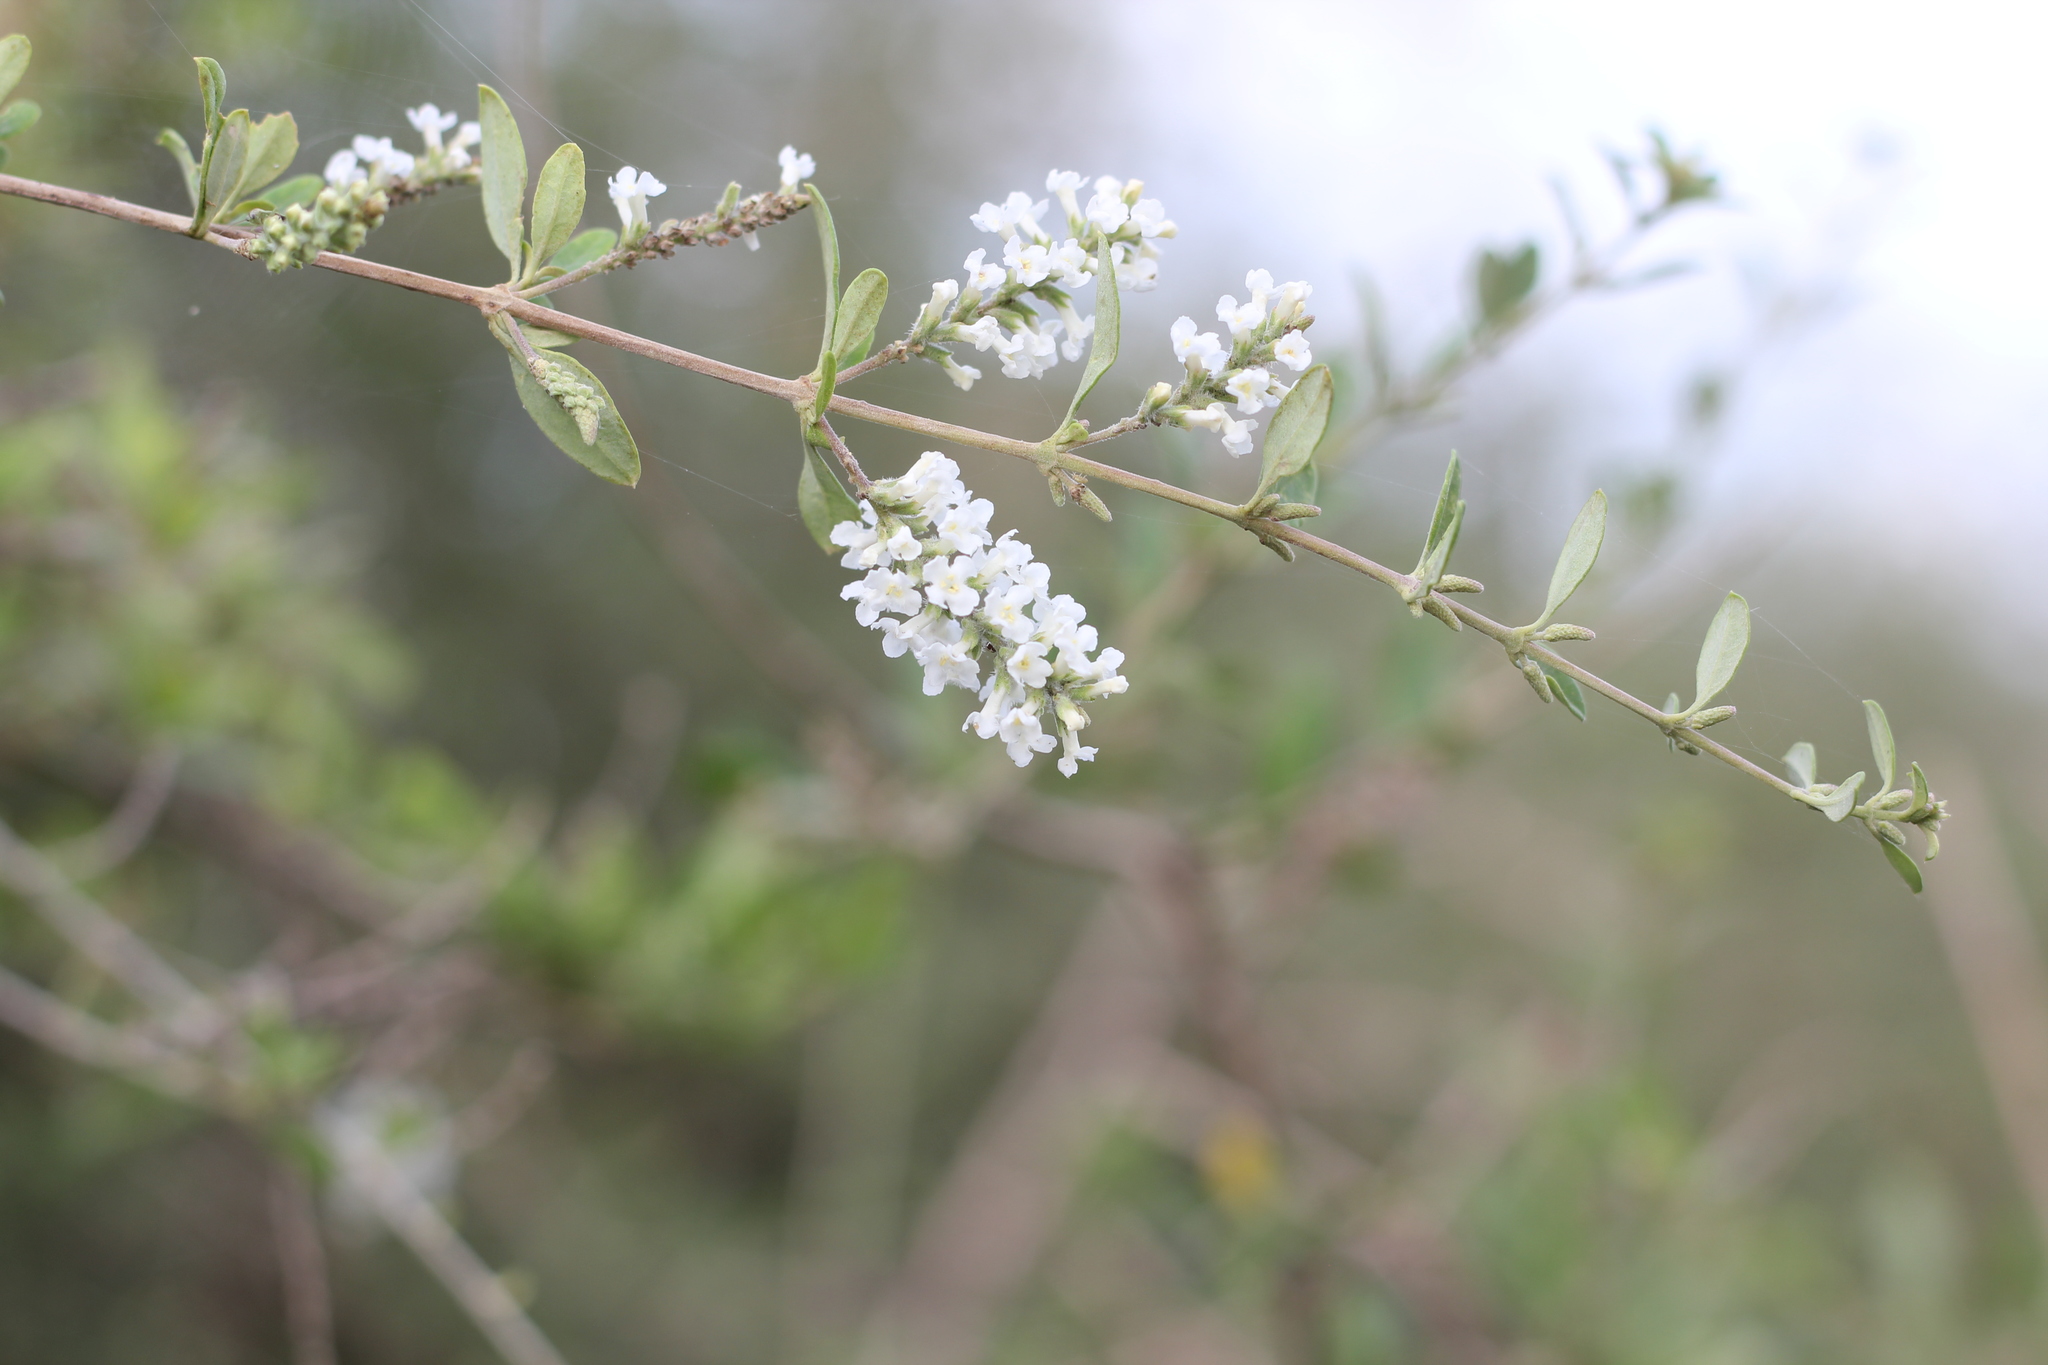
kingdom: Plantae
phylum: Tracheophyta
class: Magnoliopsida
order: Lamiales
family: Verbenaceae
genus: Aloysia
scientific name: Aloysia gratissima
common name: Common bee-brush
